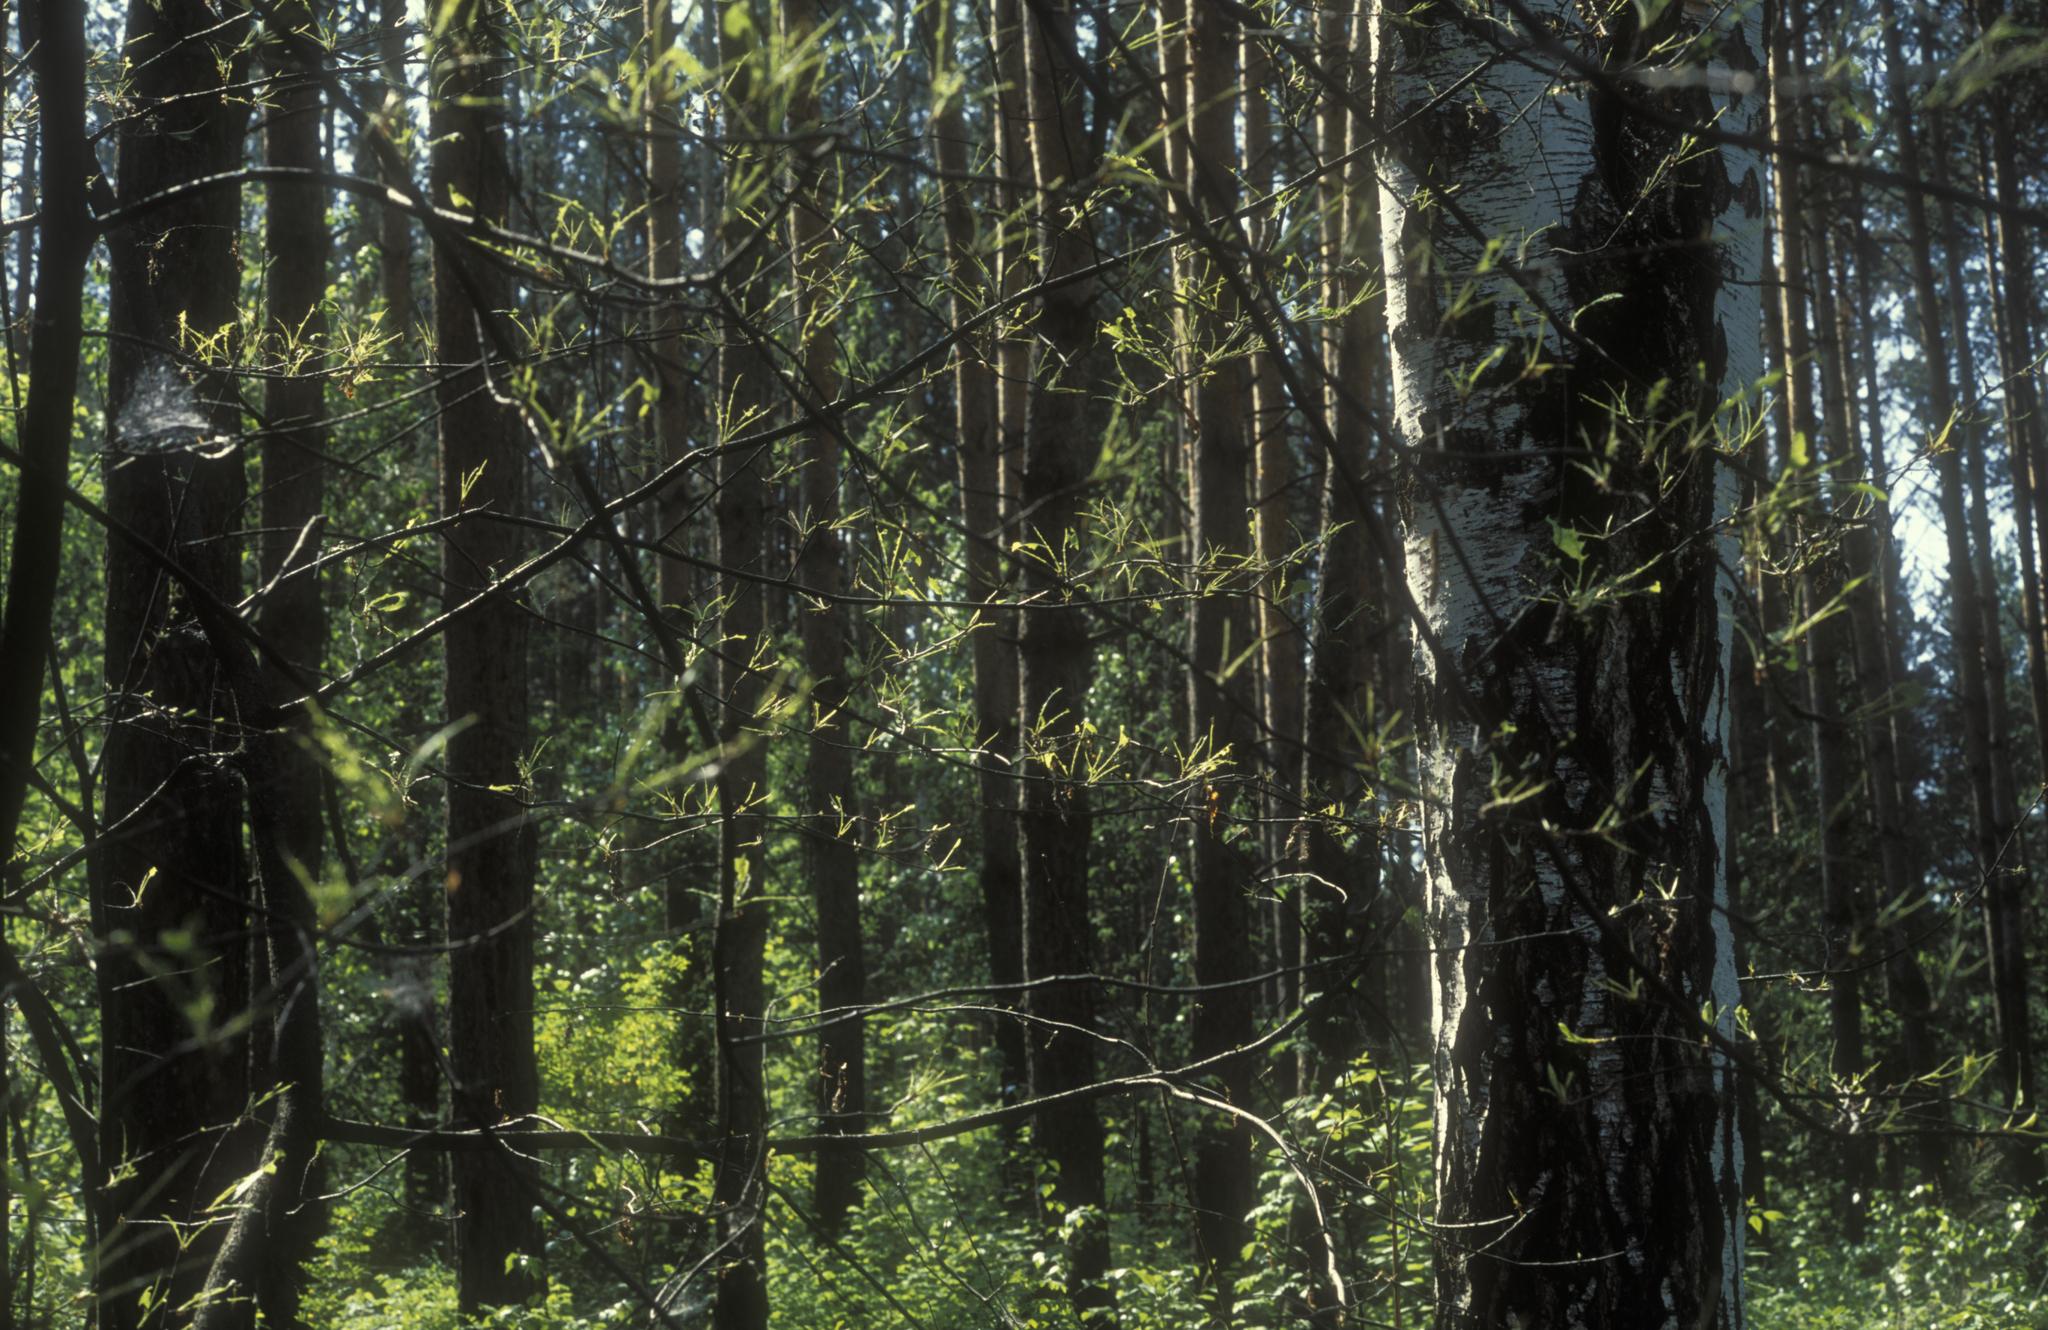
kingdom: Plantae
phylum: Tracheophyta
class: Magnoliopsida
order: Rosales
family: Rosaceae
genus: Prunus
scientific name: Prunus padus
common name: Bird cherry
